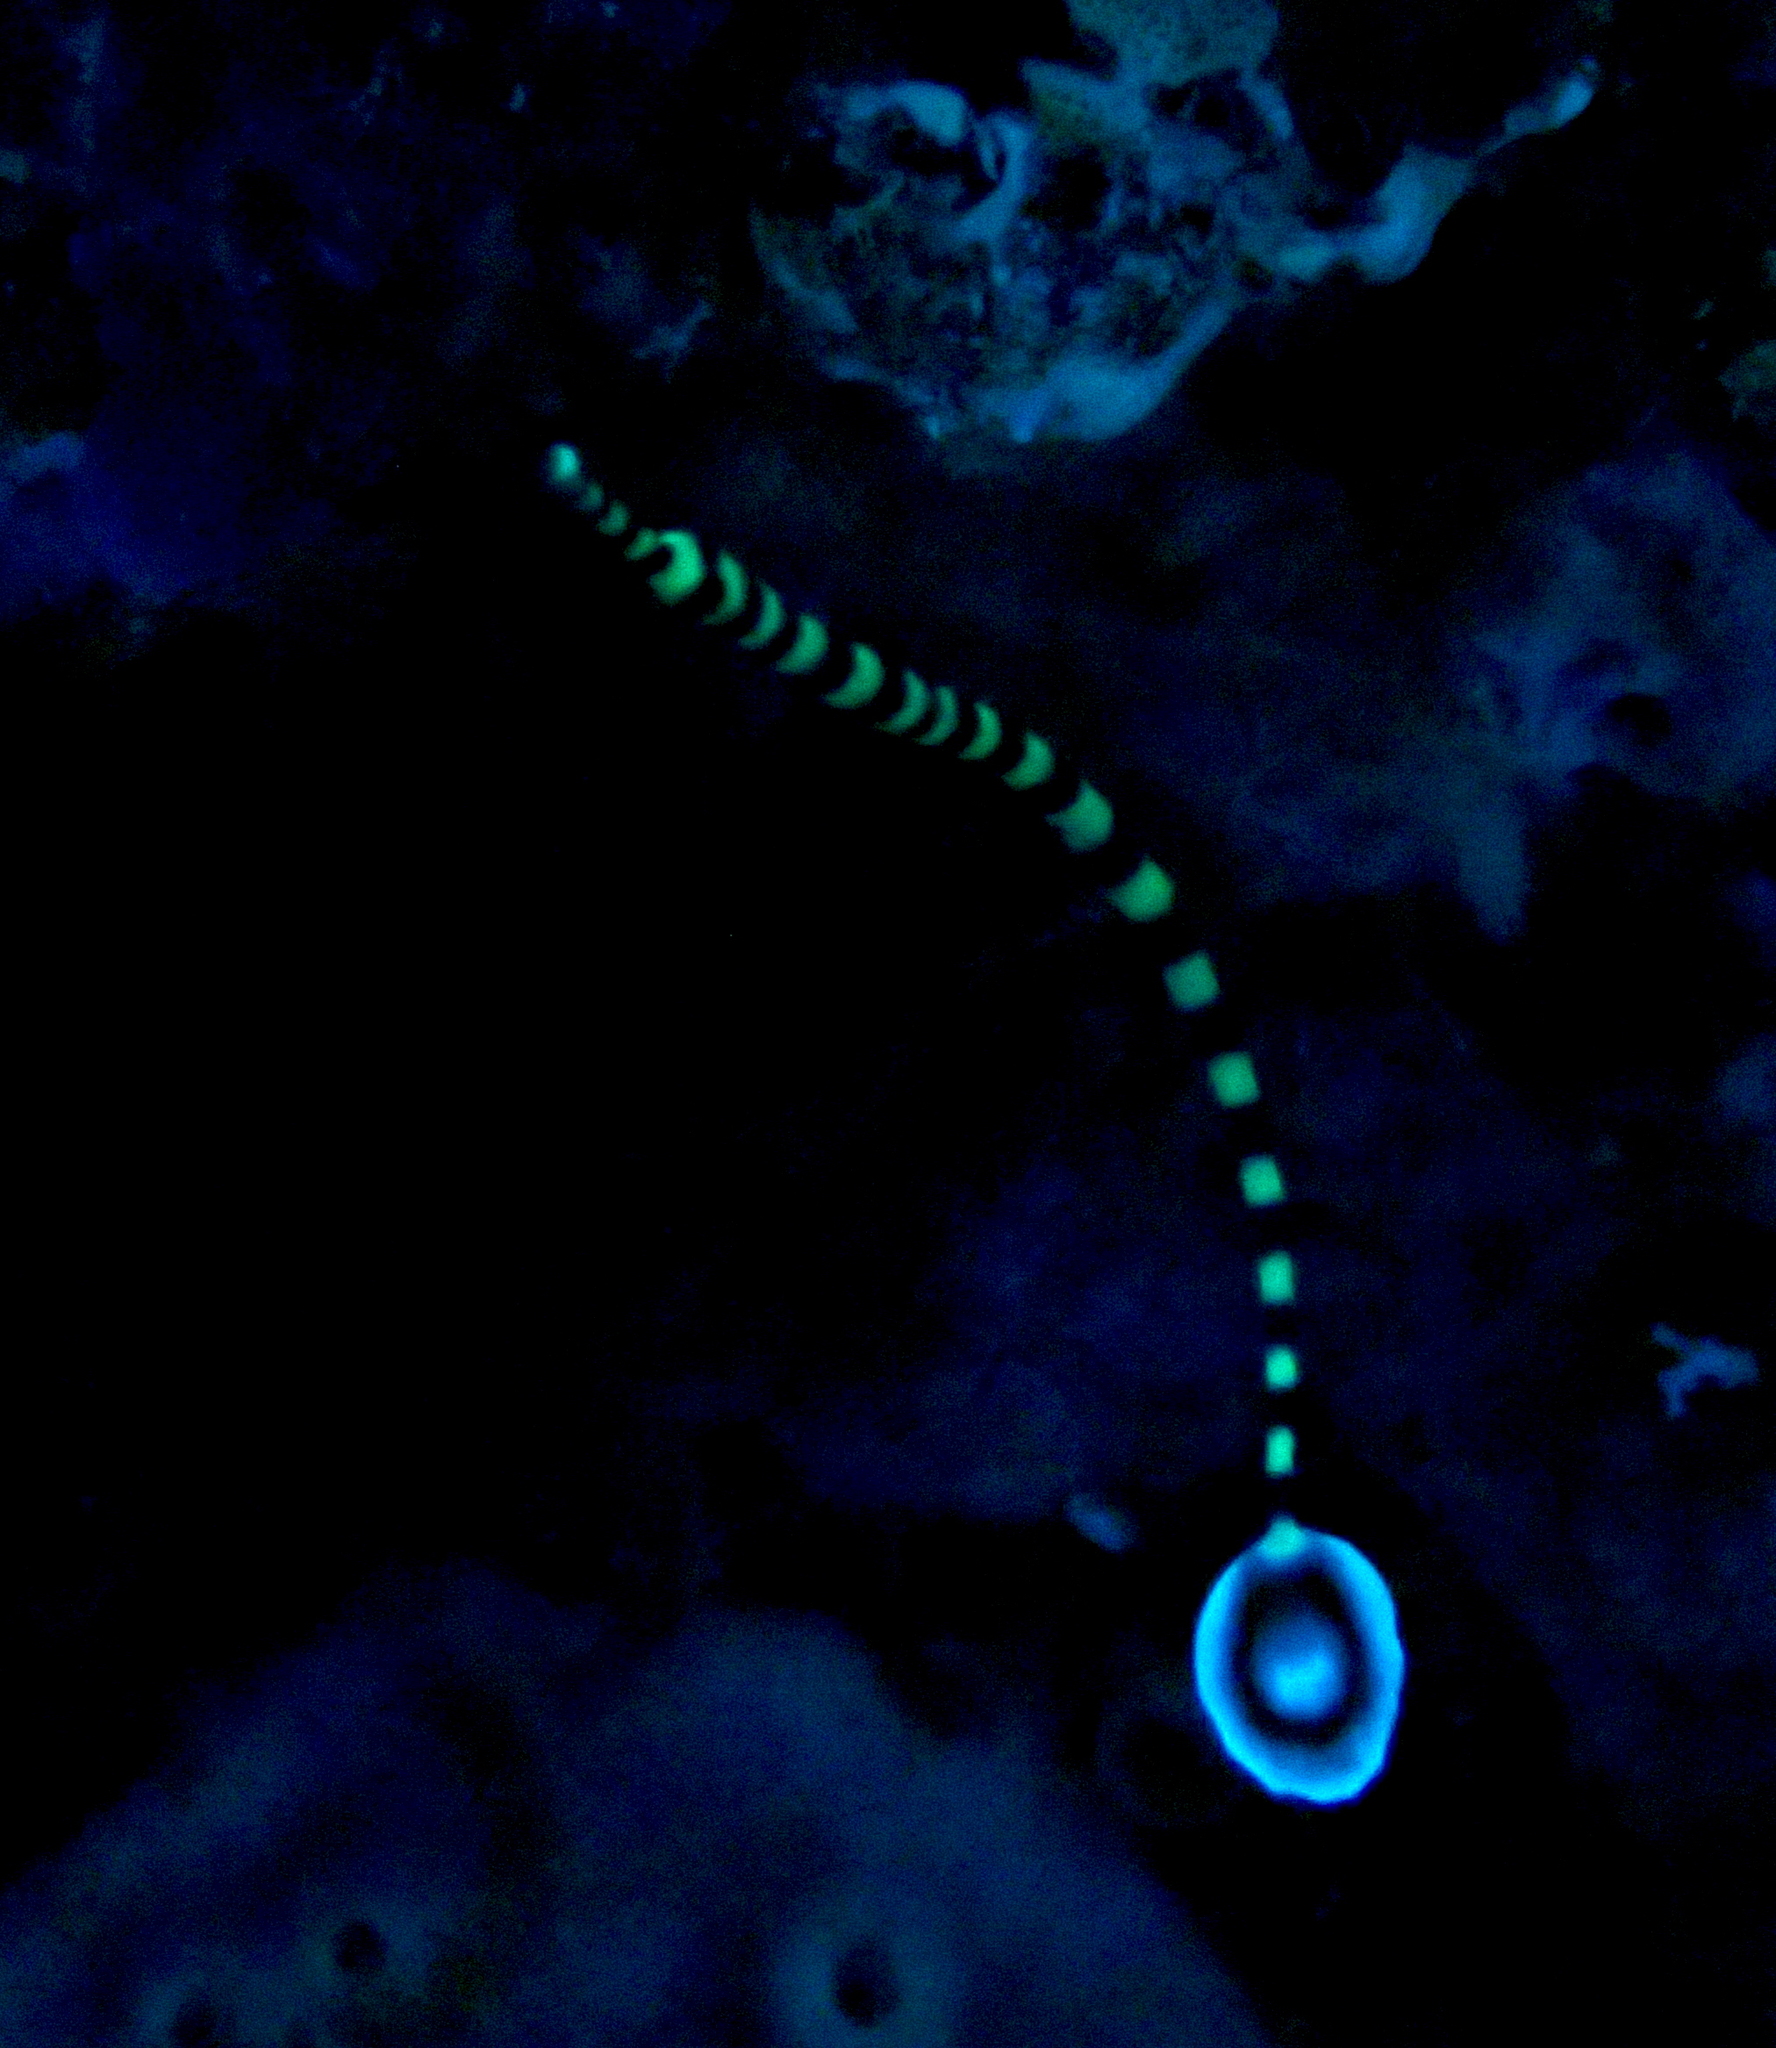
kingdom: Animalia
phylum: Chordata
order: Syngnathiformes
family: Syngnathidae
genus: Dunckerocampus
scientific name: Dunckerocampus dactyliophorus
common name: Banded pipefish
